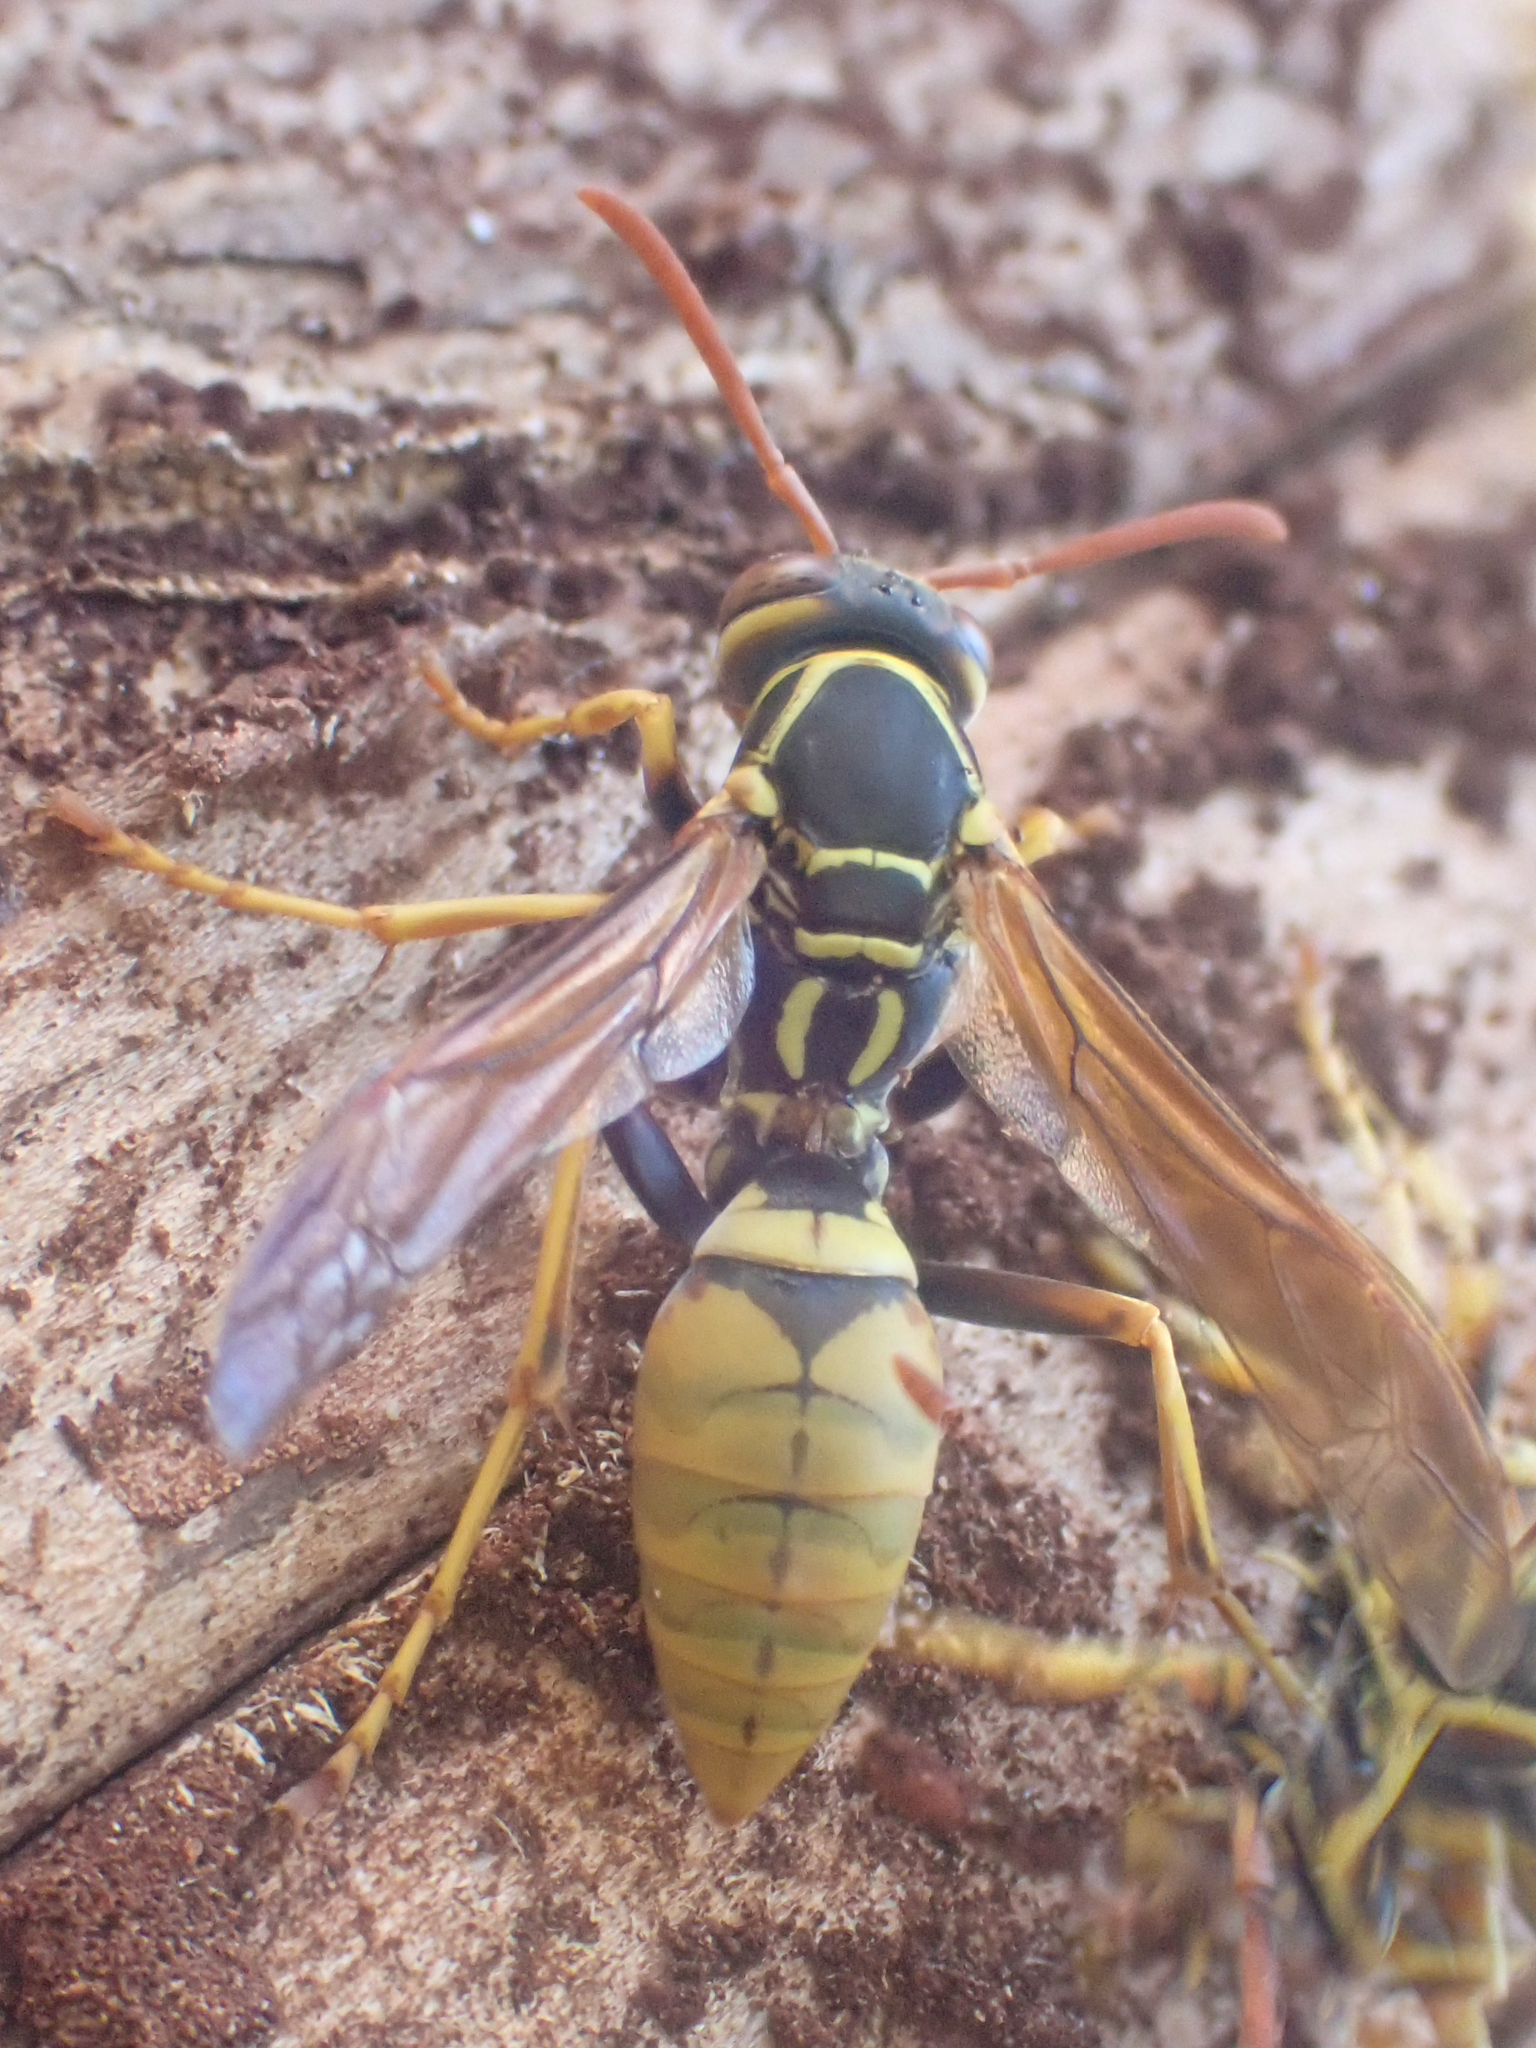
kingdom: Animalia
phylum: Arthropoda
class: Insecta
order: Hymenoptera
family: Eumenidae
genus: Polistes
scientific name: Polistes aurifer
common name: Paper wasp
